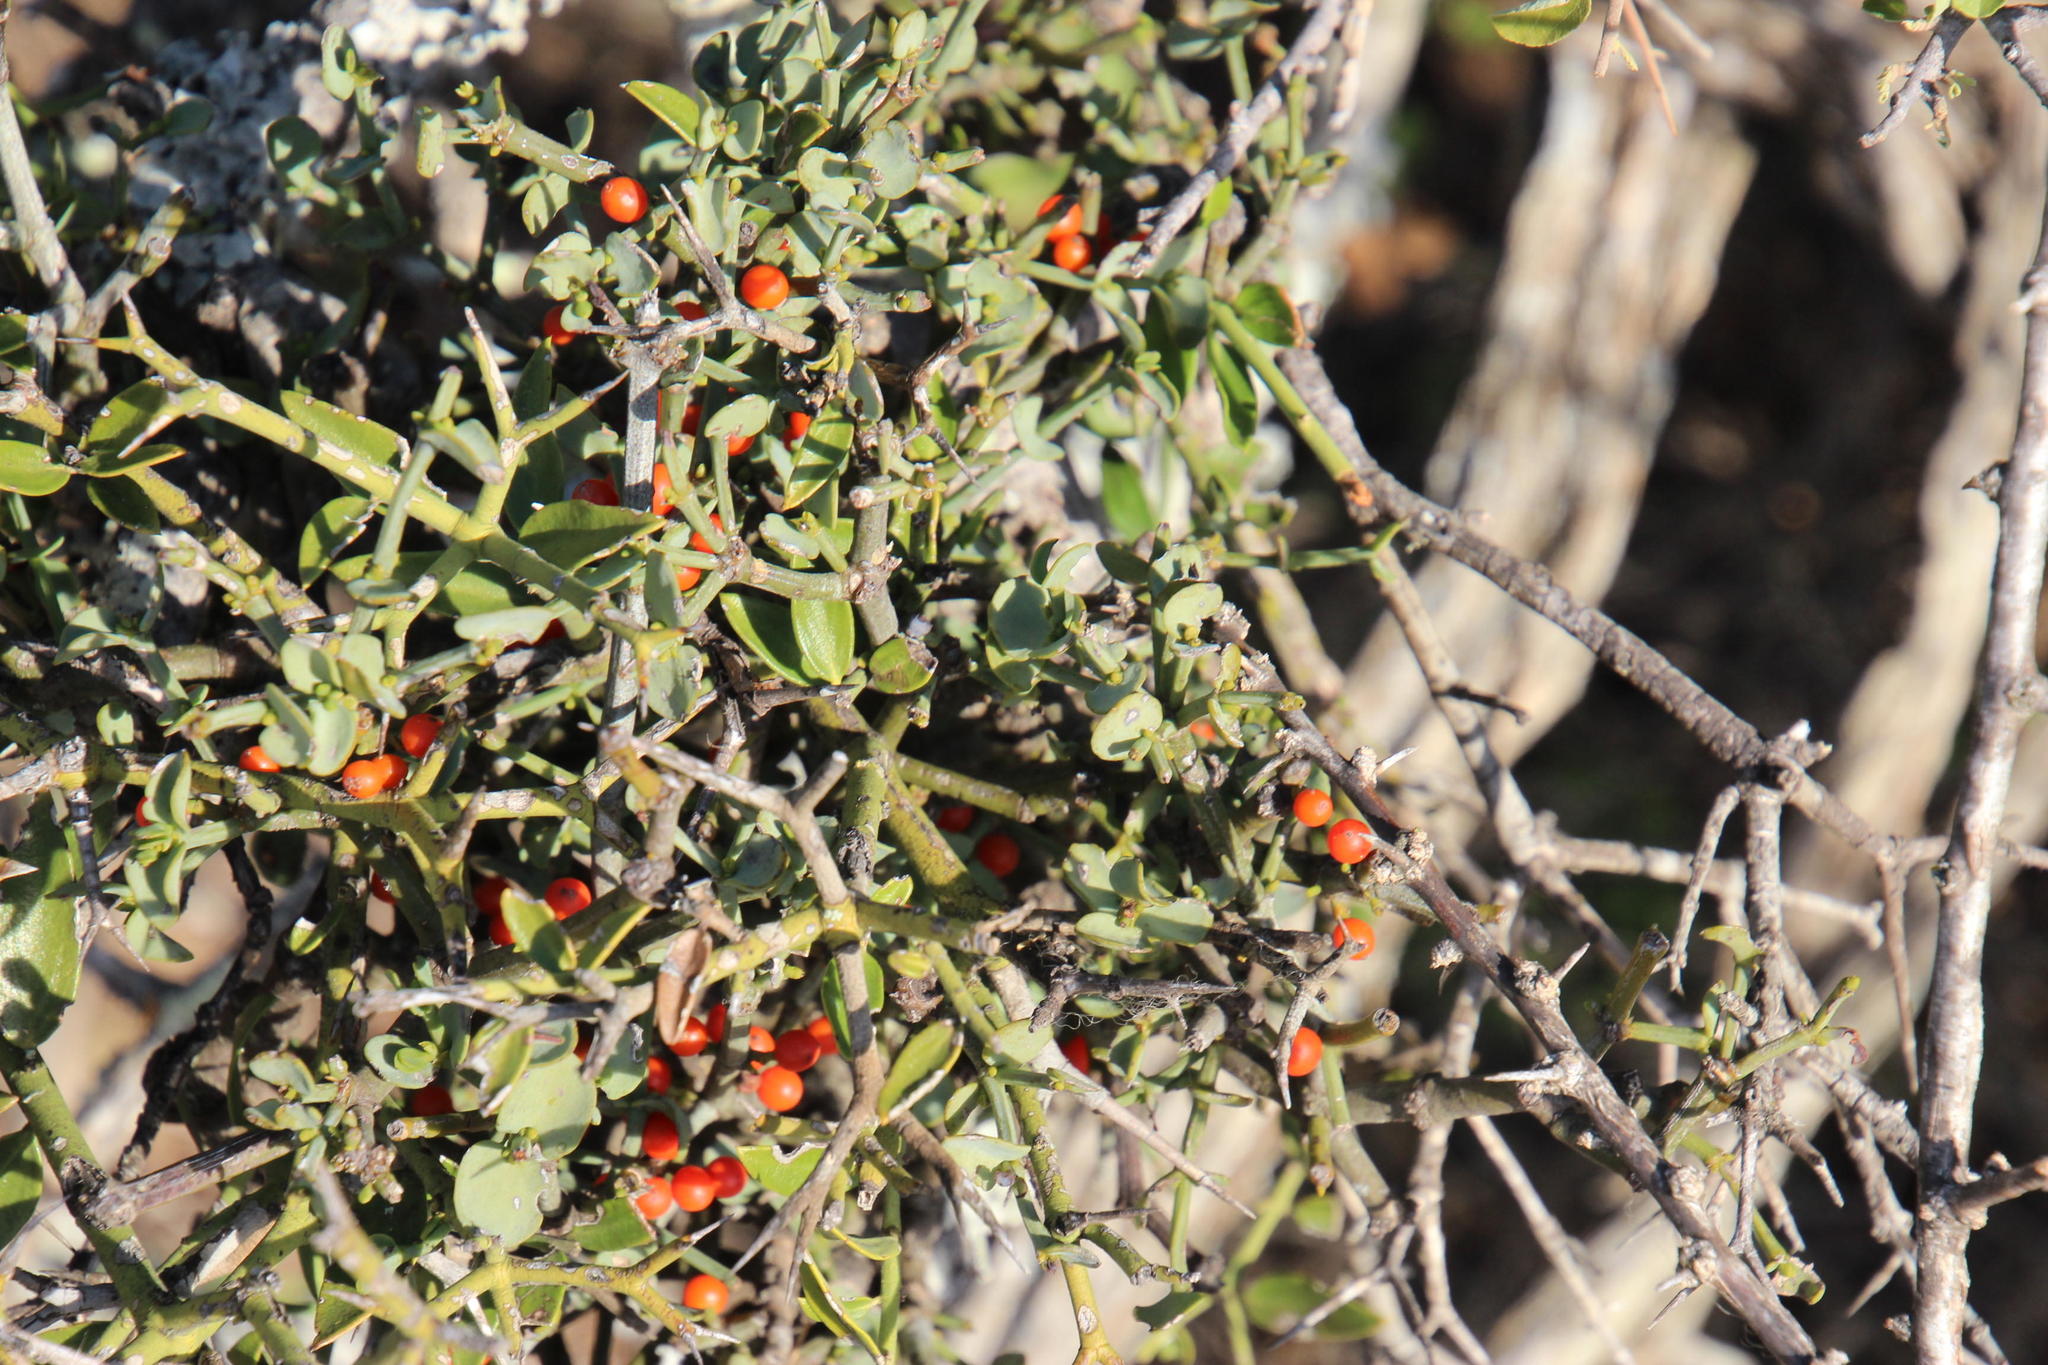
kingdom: Plantae
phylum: Tracheophyta
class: Magnoliopsida
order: Gentianales
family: Apocynaceae
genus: Carissa
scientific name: Carissa haematocarpa
